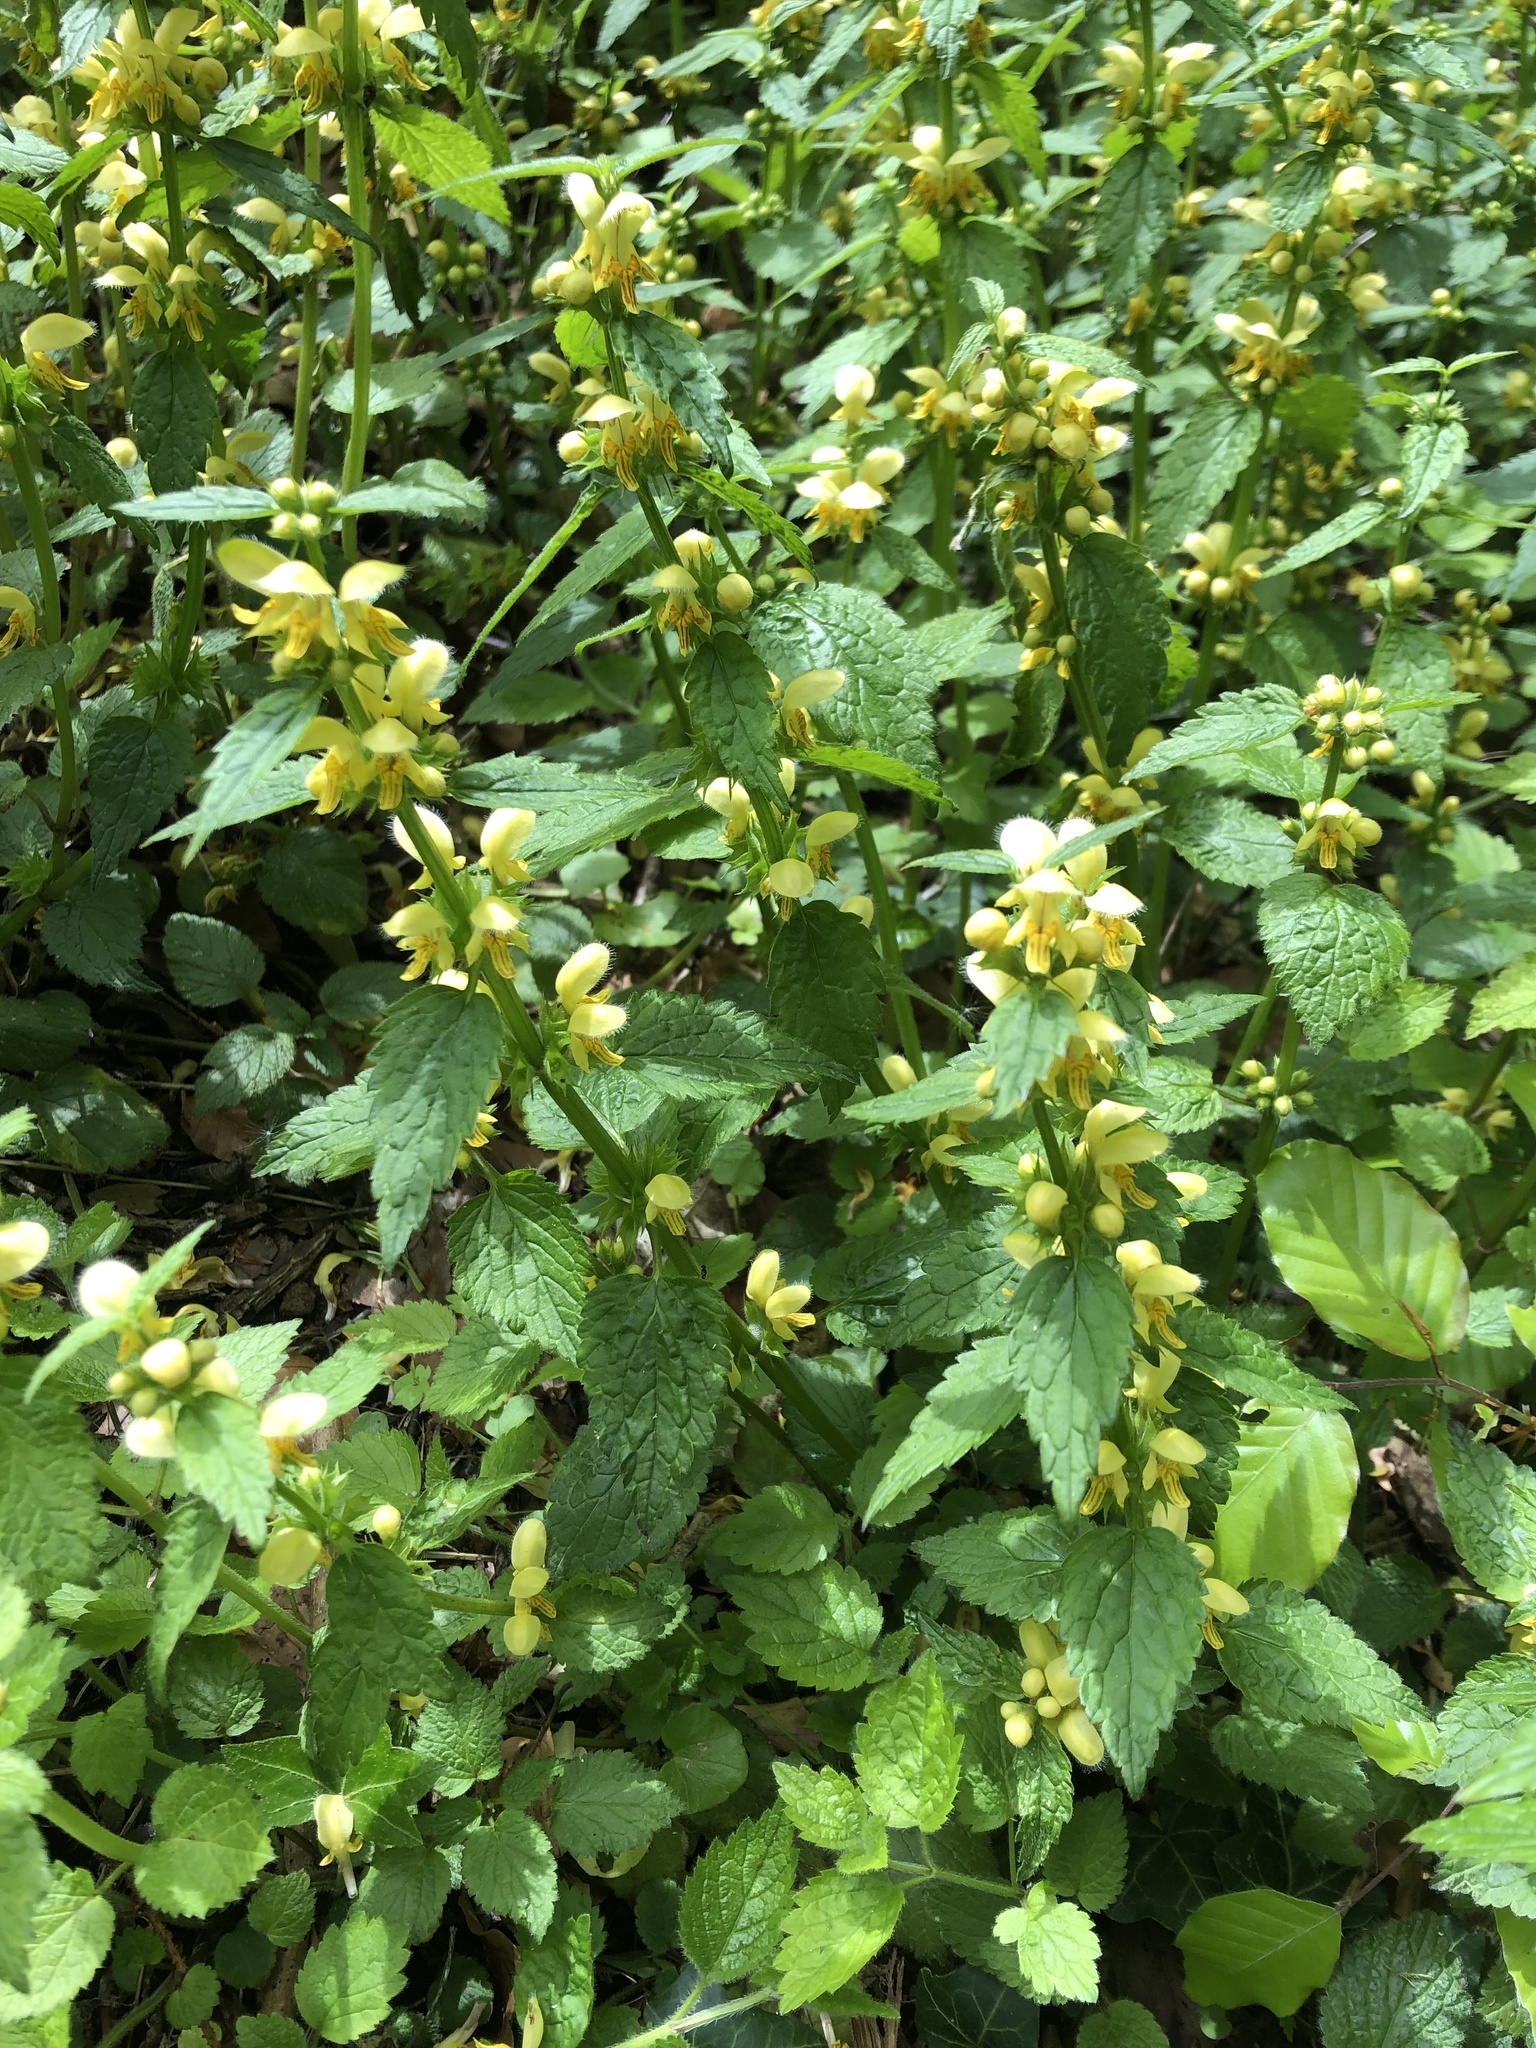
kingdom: Plantae
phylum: Tracheophyta
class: Magnoliopsida
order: Lamiales
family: Lamiaceae
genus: Lamium
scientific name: Lamium galeobdolon
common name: Yellow archangel
